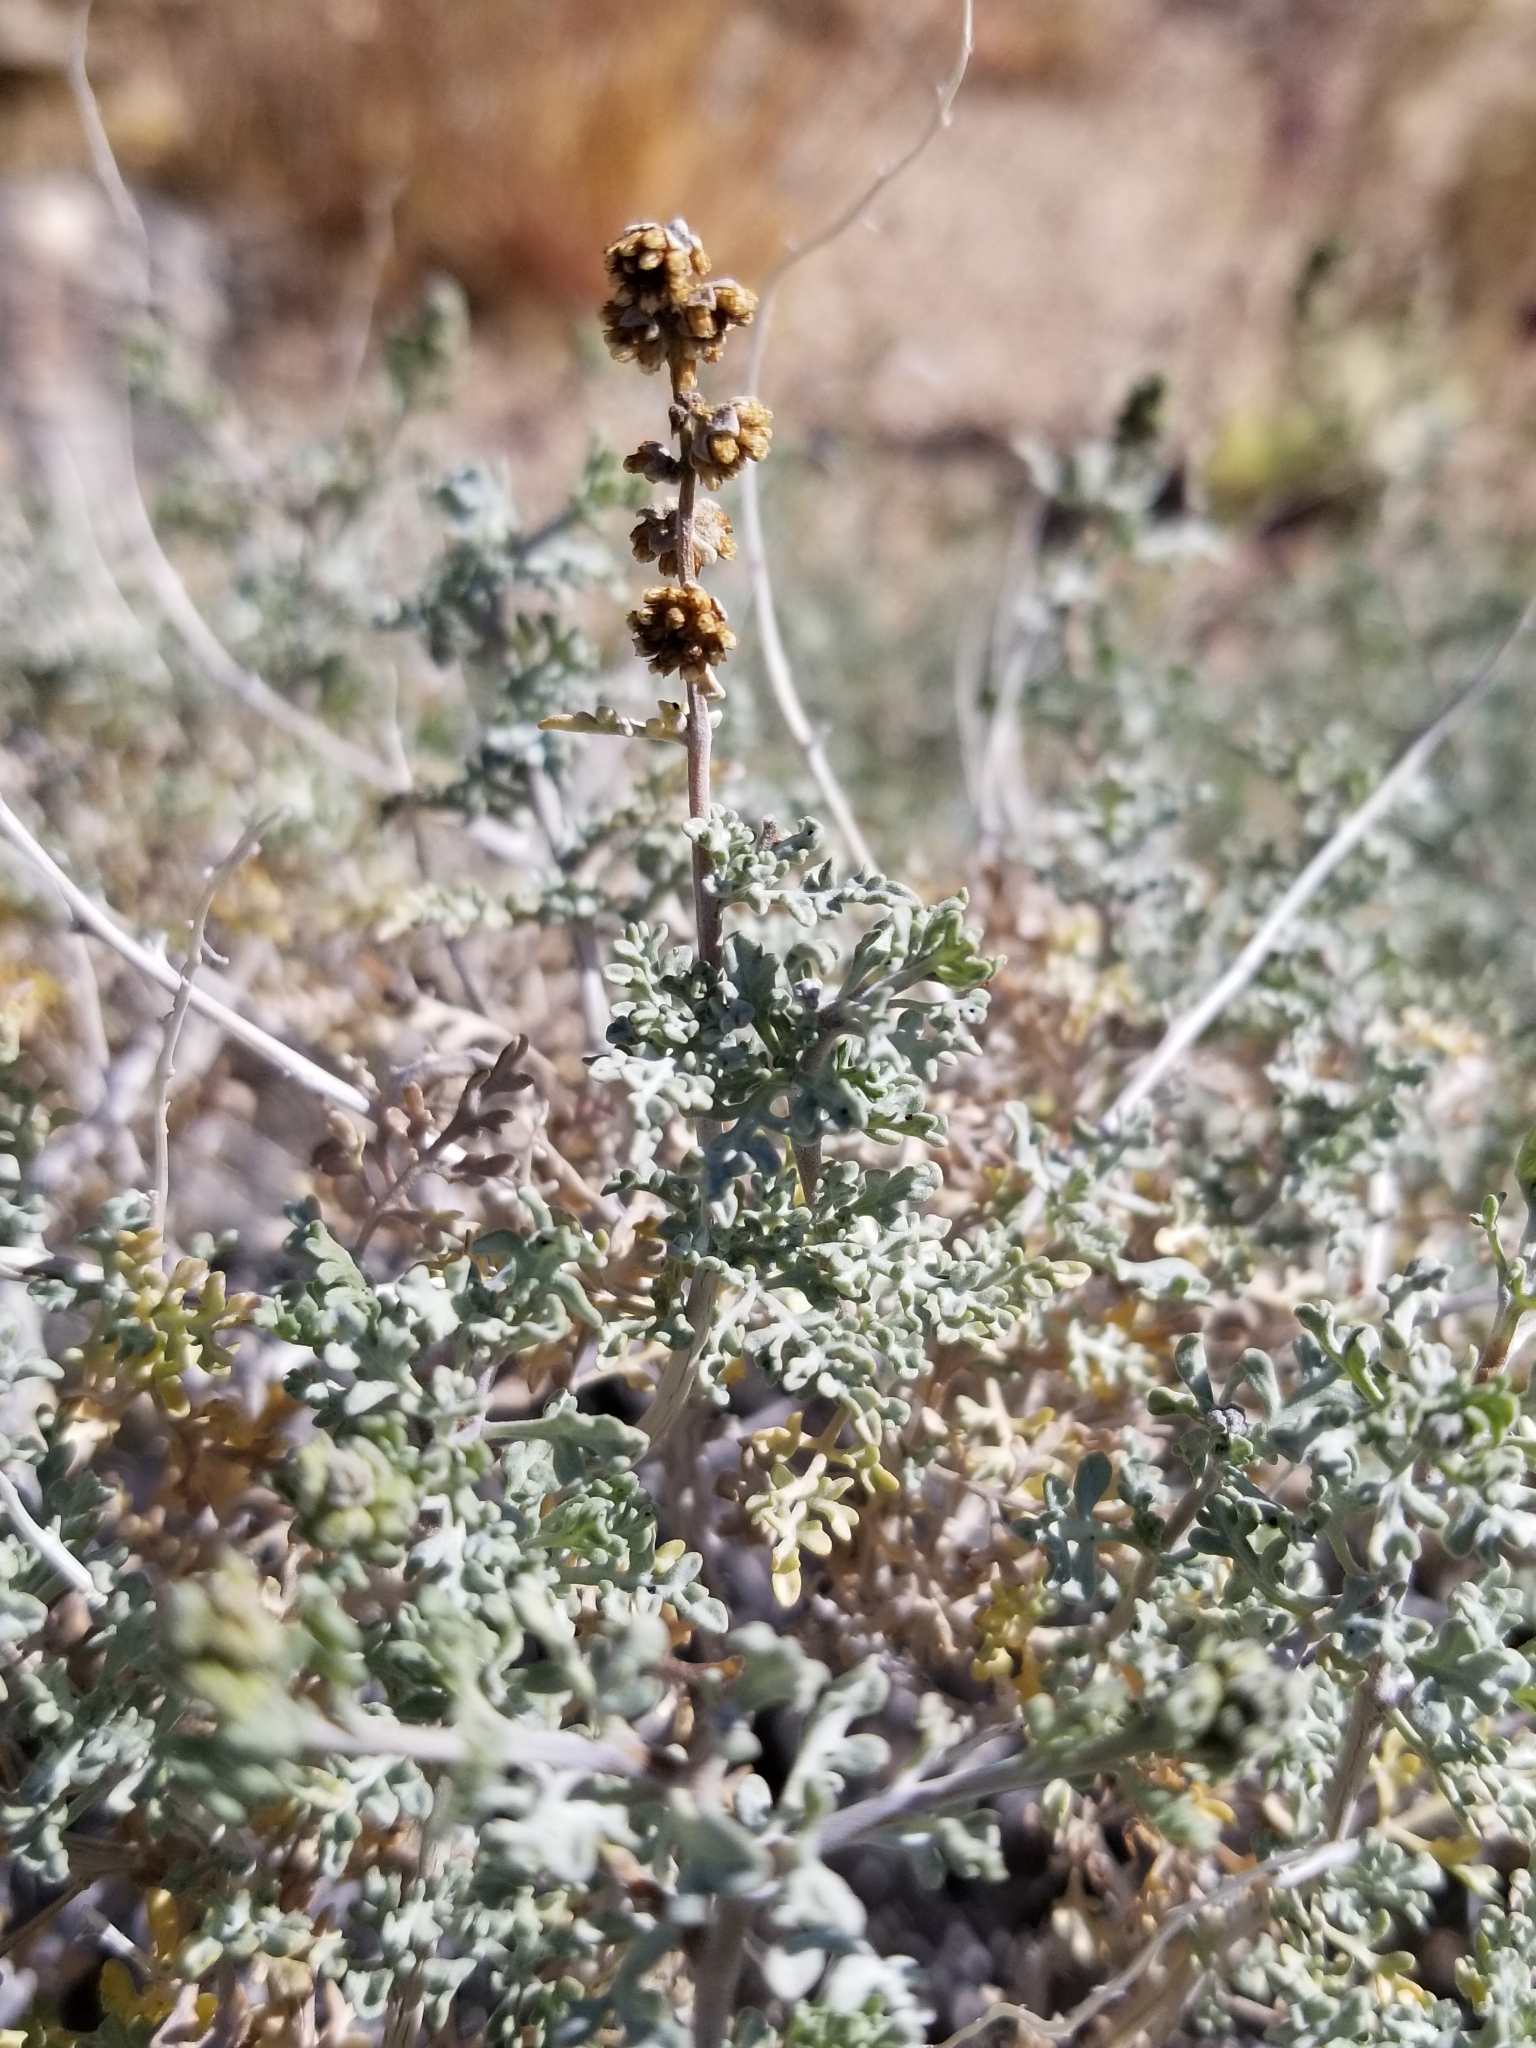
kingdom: Plantae
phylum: Tracheophyta
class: Magnoliopsida
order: Asterales
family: Asteraceae
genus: Ambrosia
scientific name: Ambrosia dumosa
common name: Bur-sage
